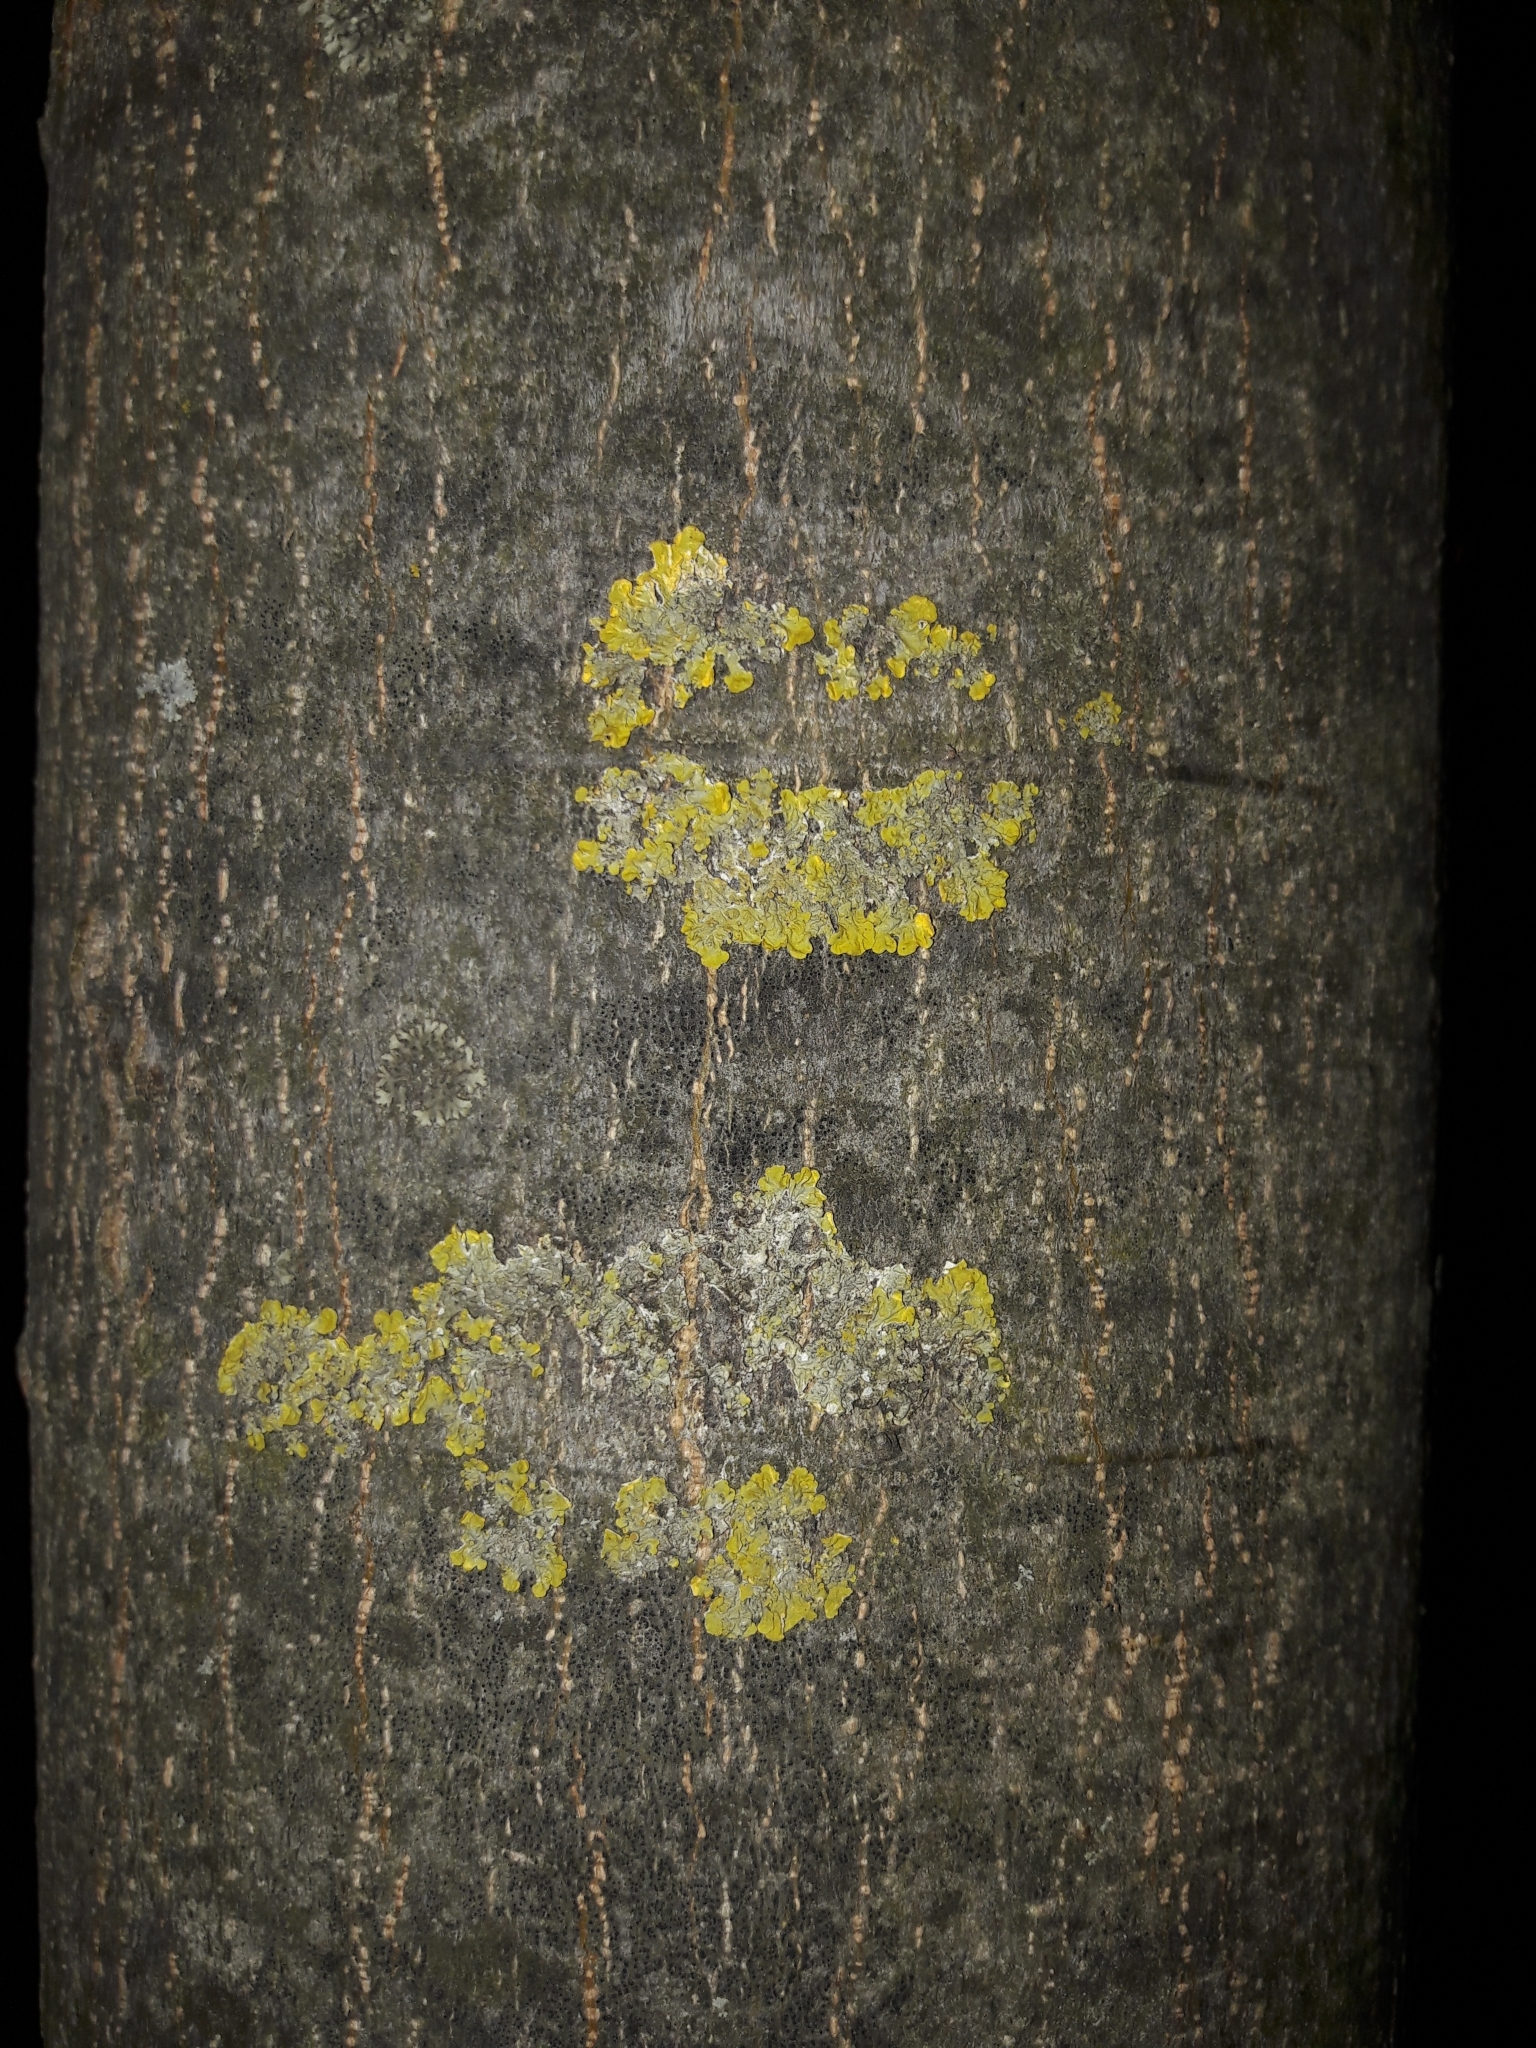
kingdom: Fungi
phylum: Ascomycota
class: Lecanoromycetes
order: Teloschistales
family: Teloschistaceae
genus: Xanthoria
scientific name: Xanthoria parietina
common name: Common orange lichen
